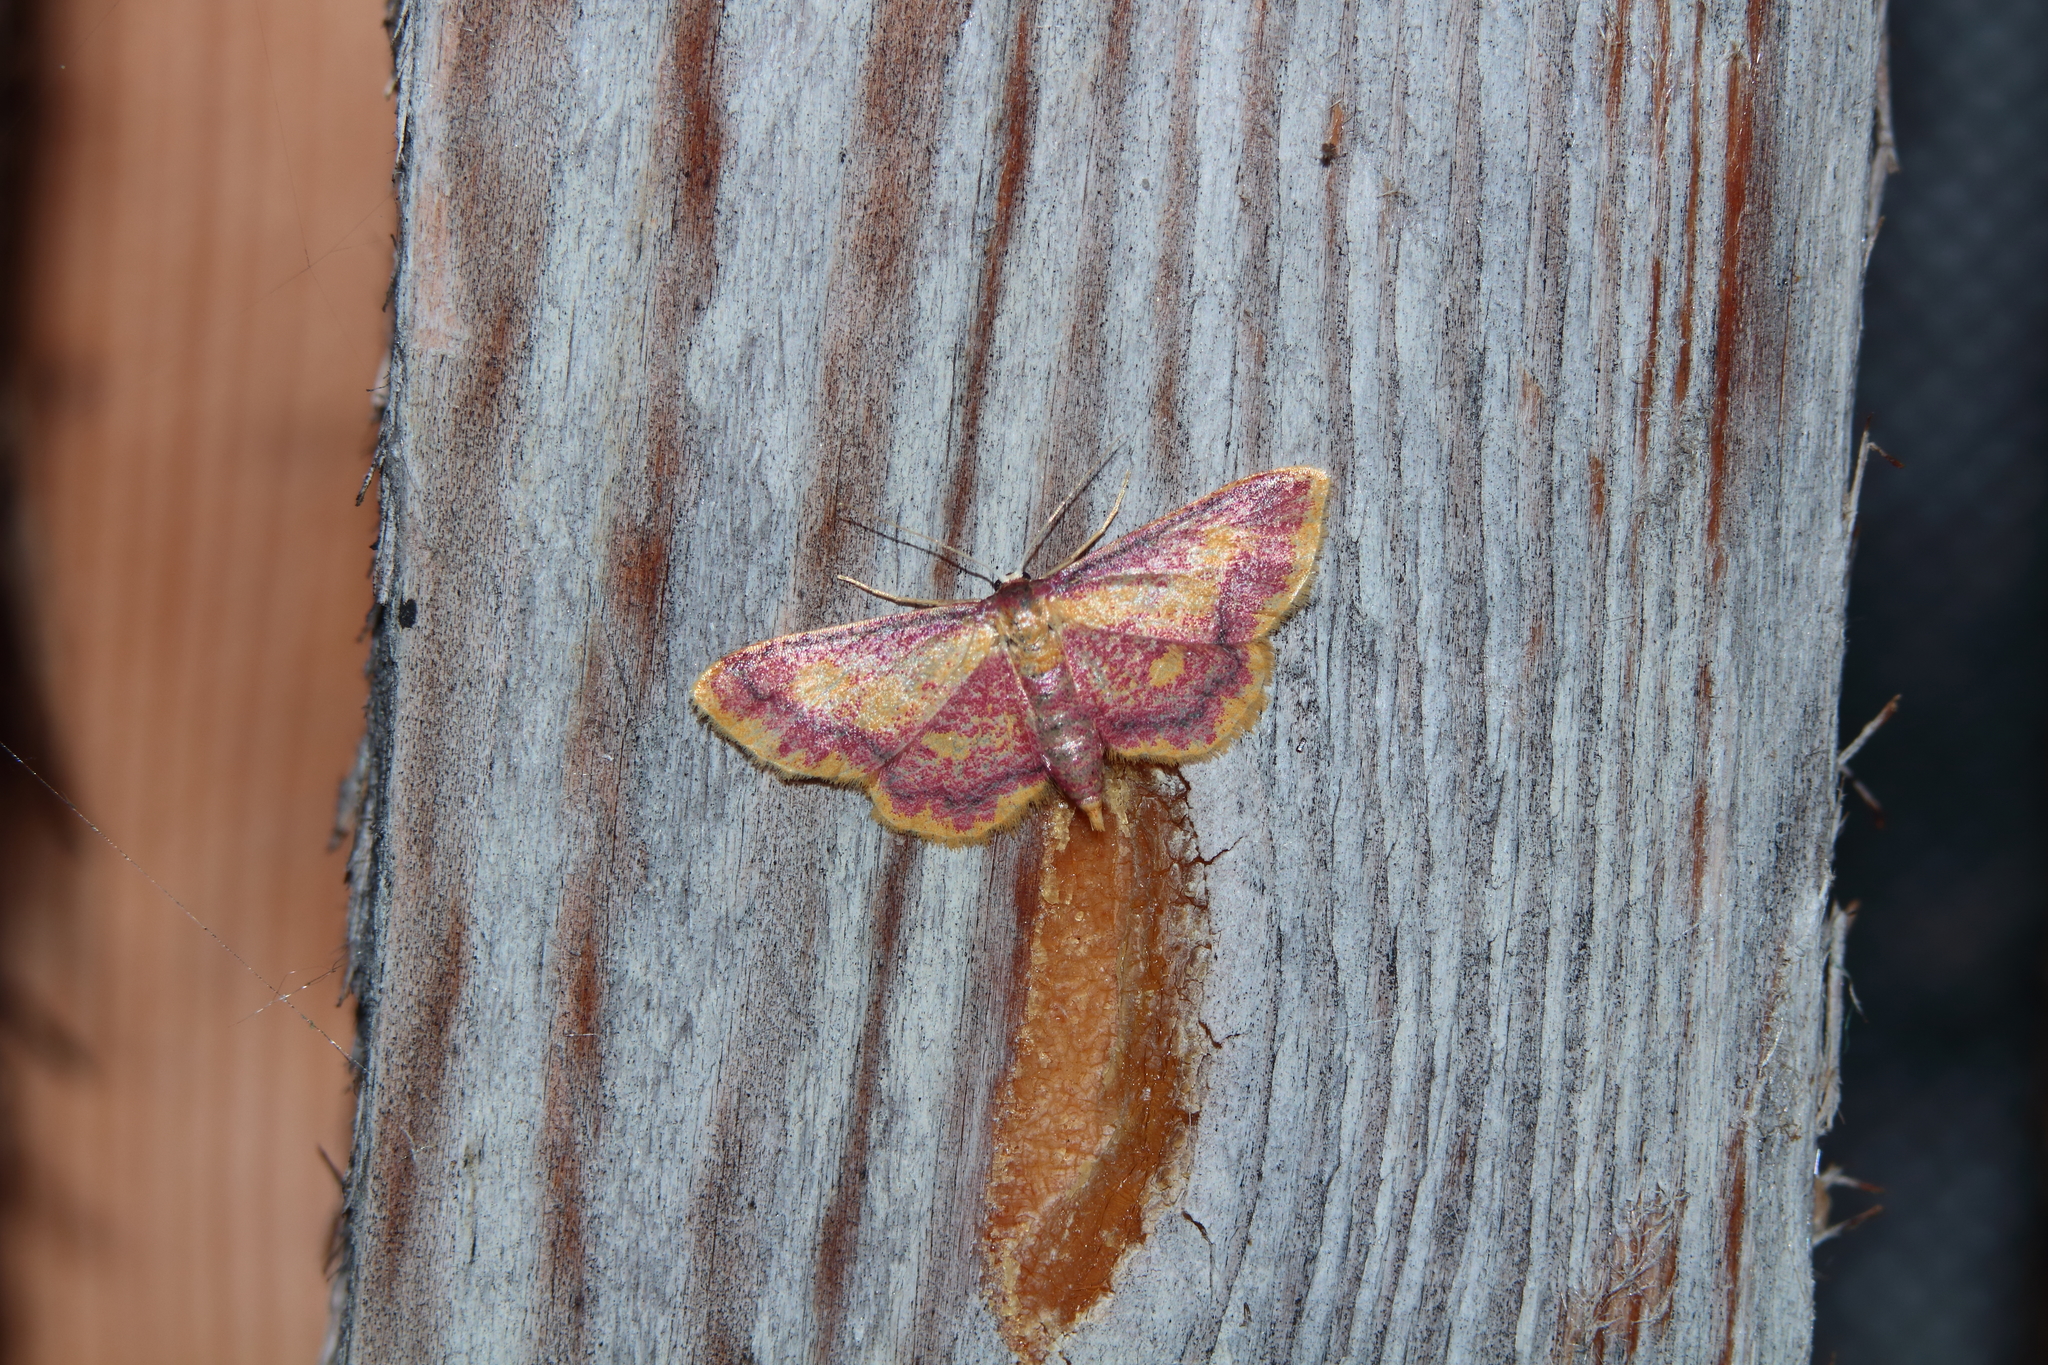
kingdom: Animalia
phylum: Arthropoda
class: Insecta
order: Lepidoptera
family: Geometridae
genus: Idaea
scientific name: Idaea muricata
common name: Purple-bordered gold
